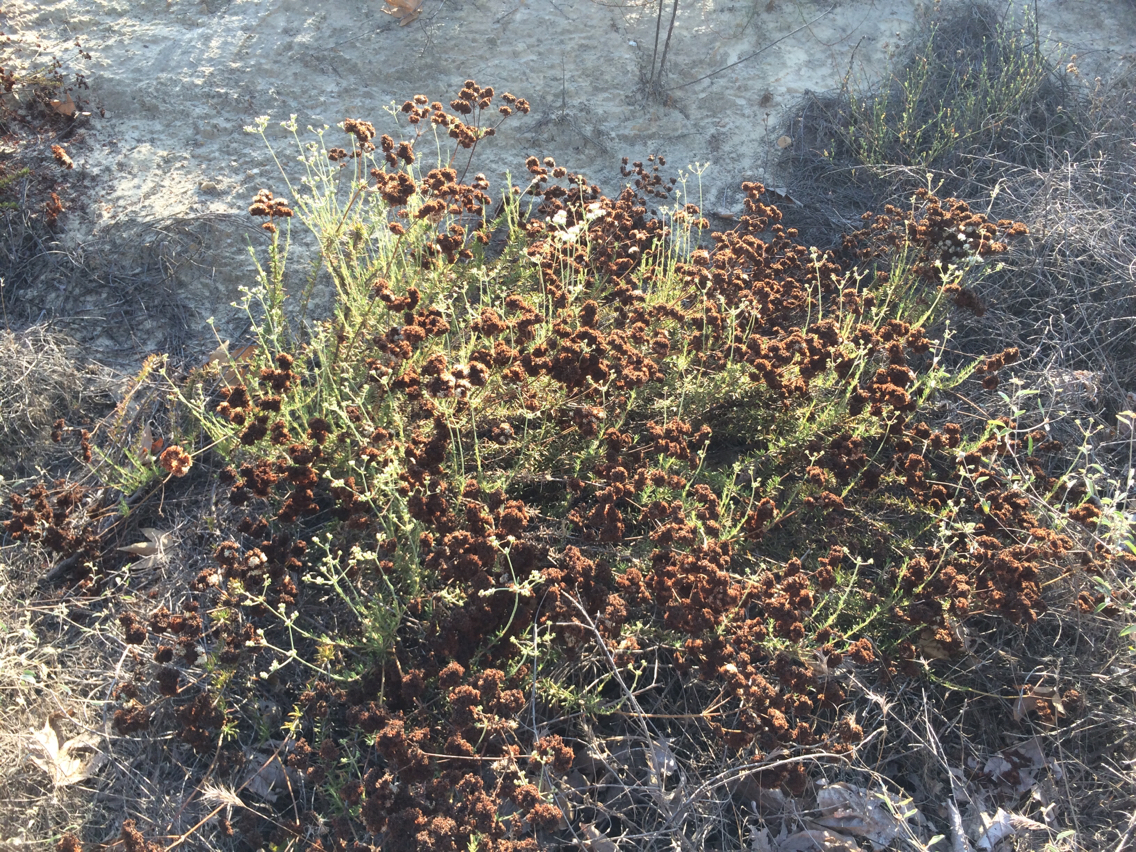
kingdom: Plantae
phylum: Tracheophyta
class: Magnoliopsida
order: Caryophyllales
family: Polygonaceae
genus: Eriogonum
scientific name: Eriogonum fasciculatum
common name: California wild buckwheat
